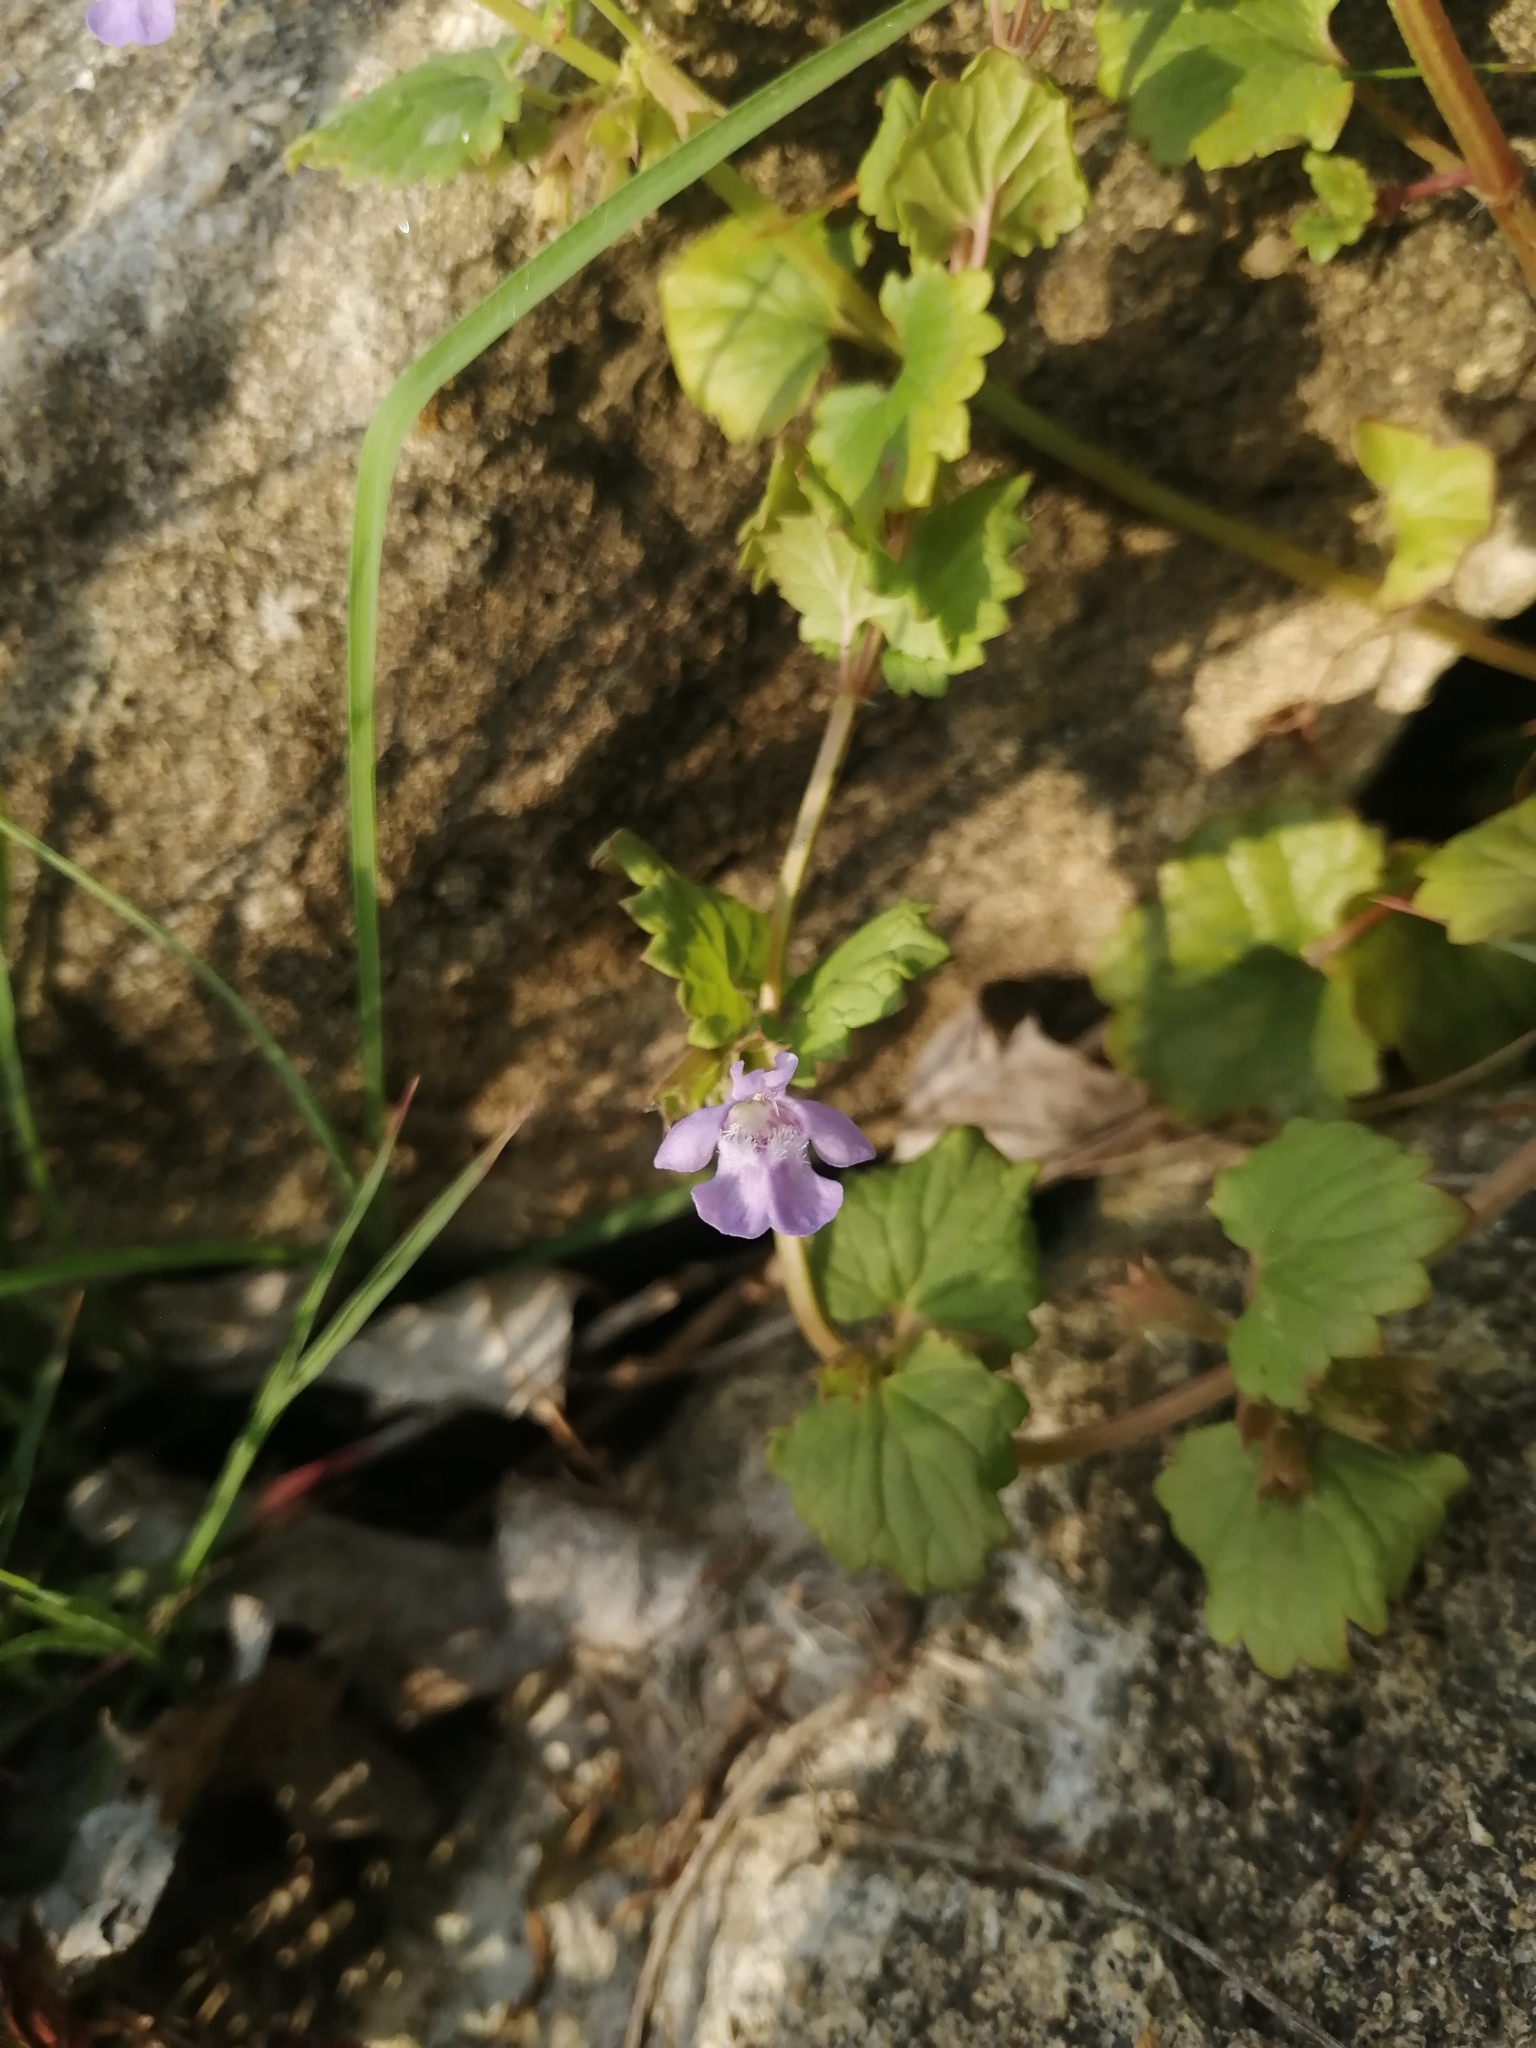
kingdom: Plantae
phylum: Tracheophyta
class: Magnoliopsida
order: Lamiales
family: Lamiaceae
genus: Glechoma
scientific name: Glechoma hederacea
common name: Ground ivy
